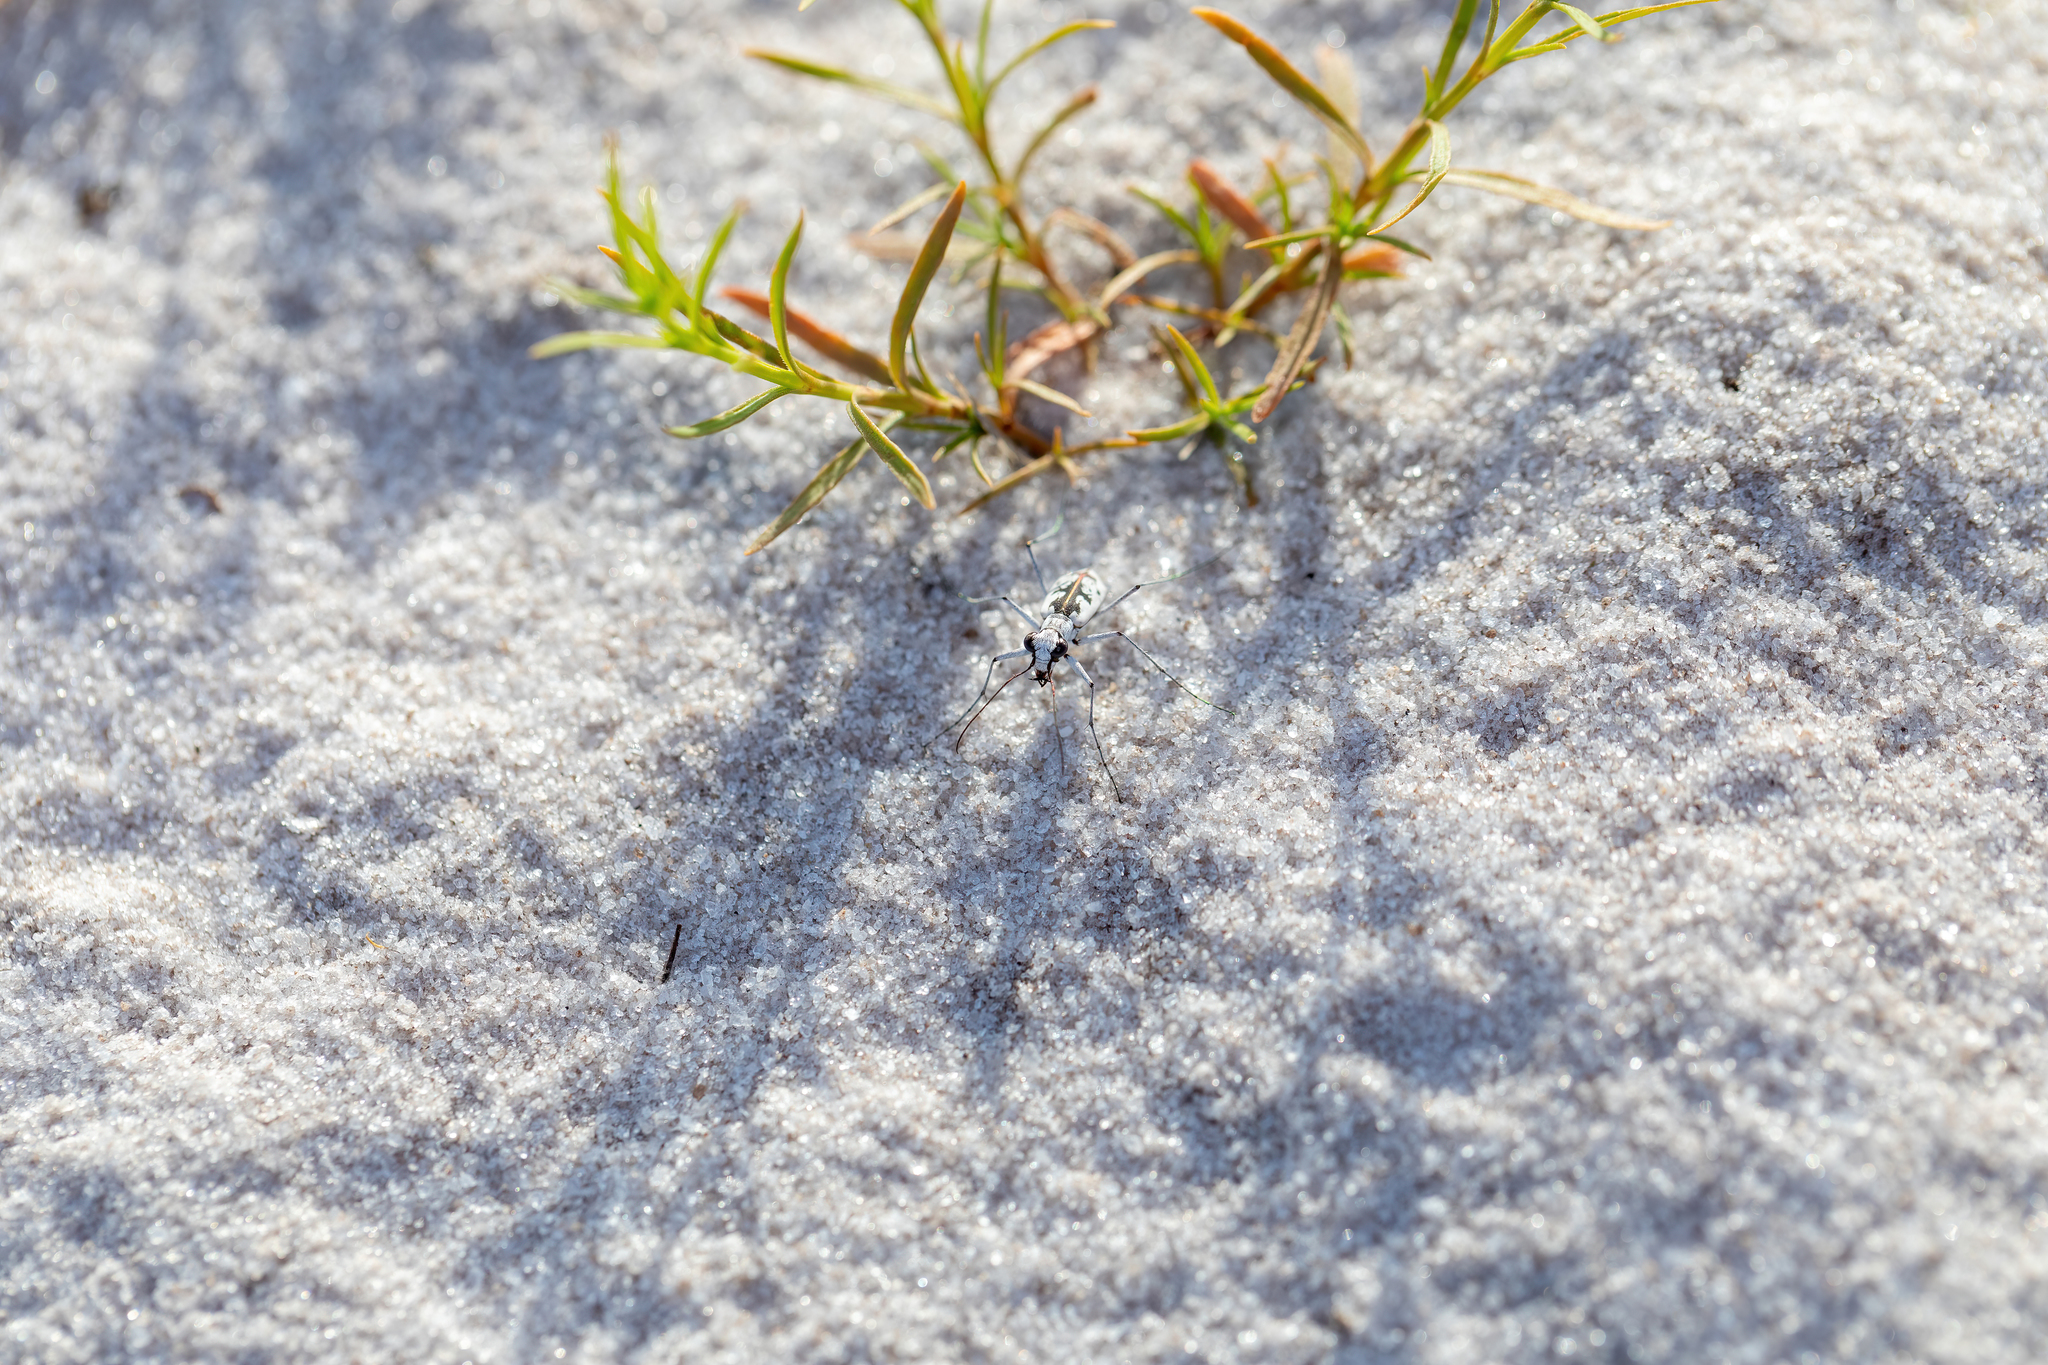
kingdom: Animalia
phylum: Arthropoda
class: Insecta
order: Coleoptera
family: Carabidae
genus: Ellipsoptera
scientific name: Ellipsoptera hirtilabris
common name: Moustached tiger beetle
